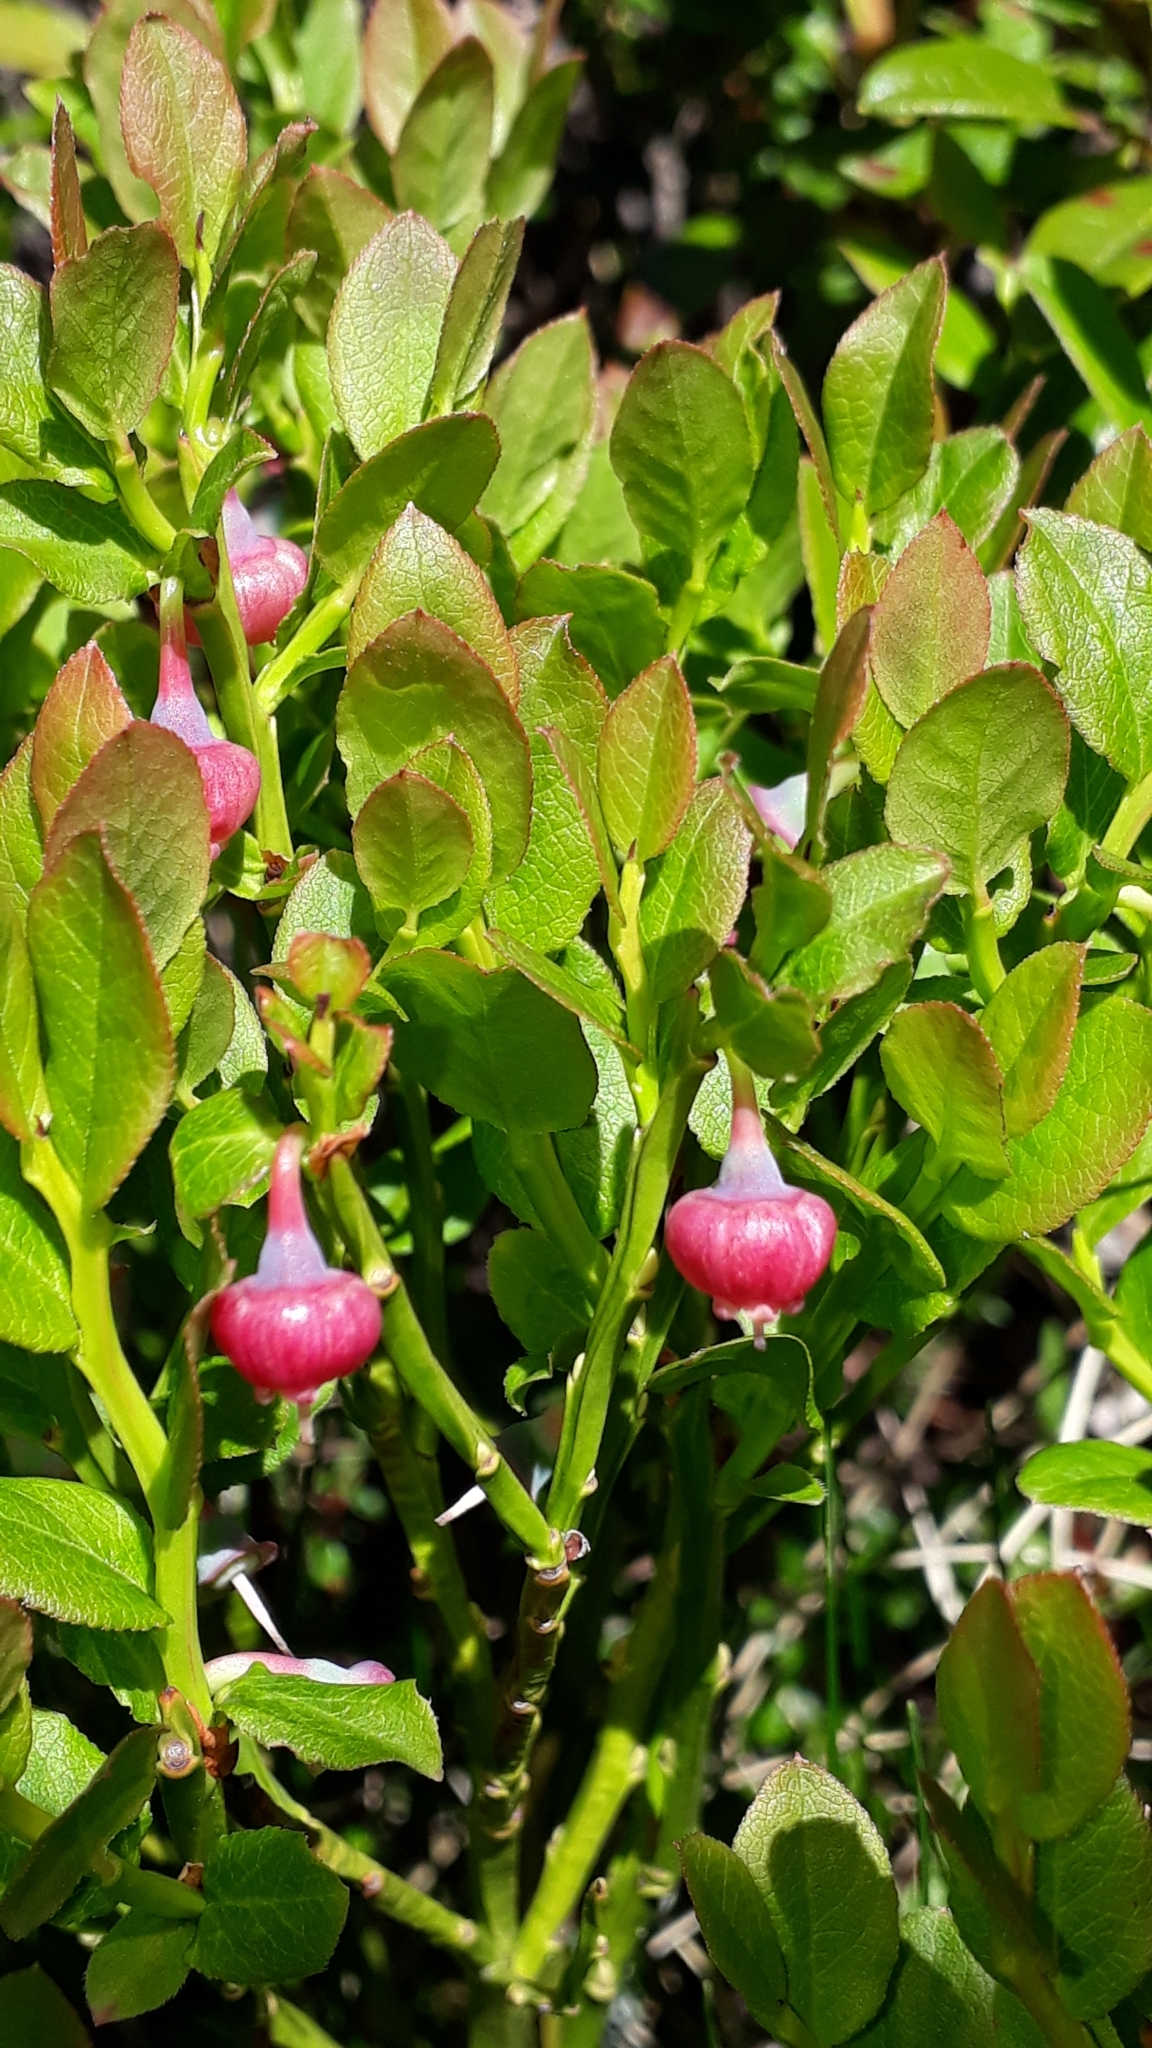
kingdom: Plantae
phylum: Tracheophyta
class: Magnoliopsida
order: Ericales
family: Ericaceae
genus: Vaccinium
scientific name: Vaccinium myrtillus
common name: Bilberry
